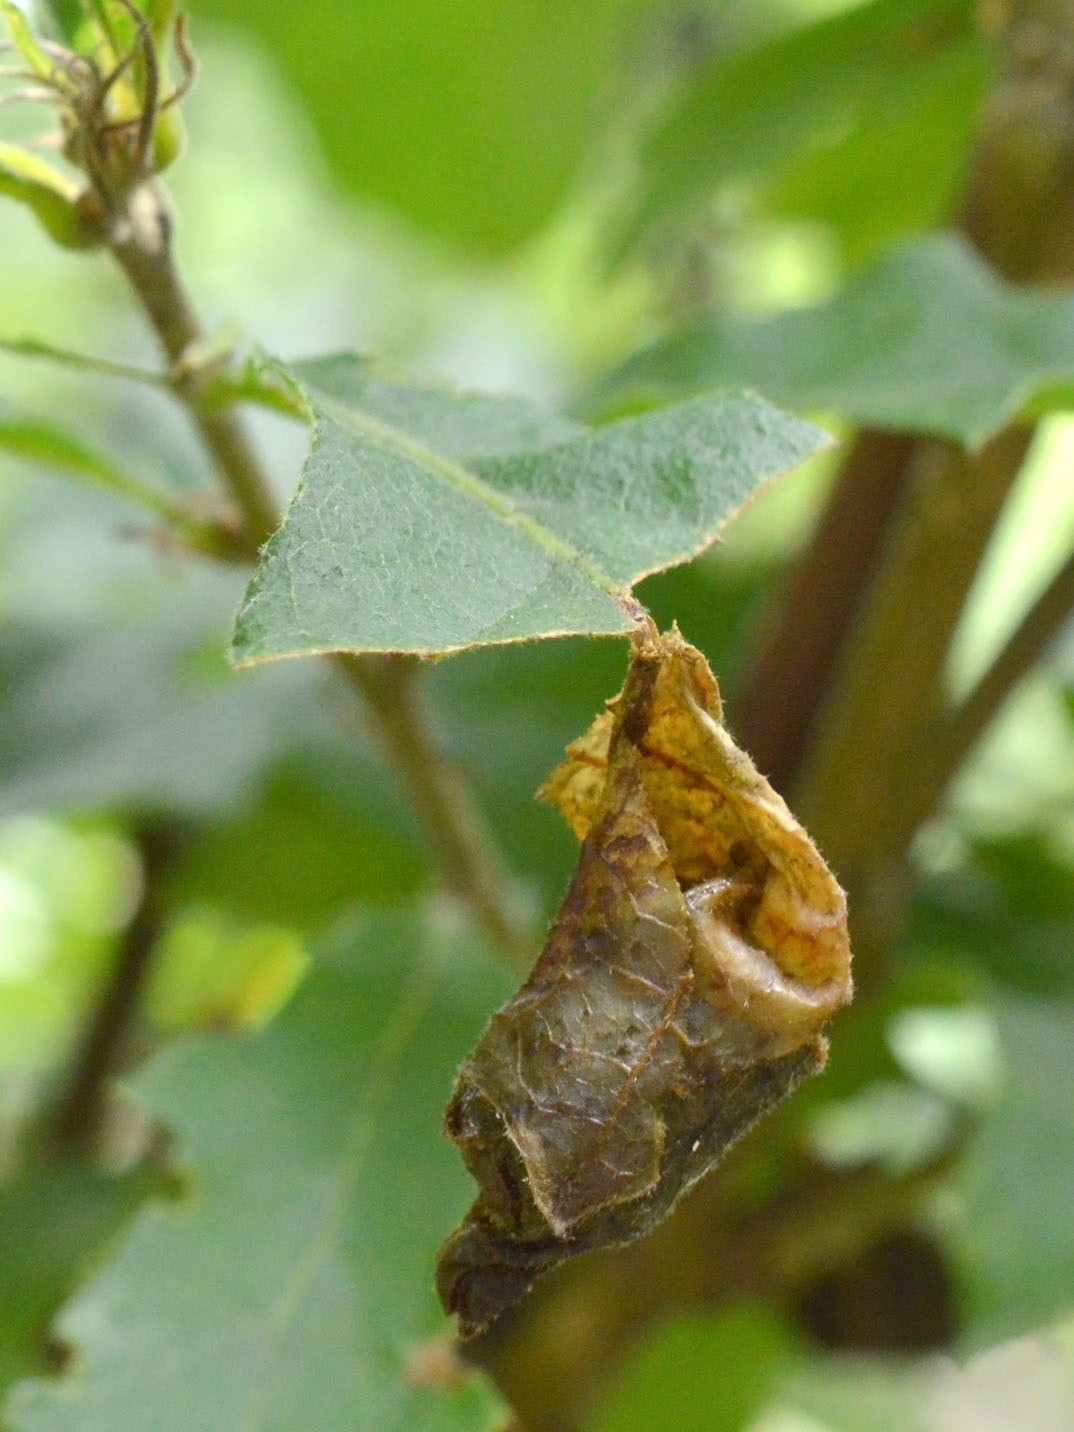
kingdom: Animalia
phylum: Arthropoda
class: Insecta
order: Coleoptera
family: Attelabidae
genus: Attelabus
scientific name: Attelabus nitens
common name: Oak leaf-roller
